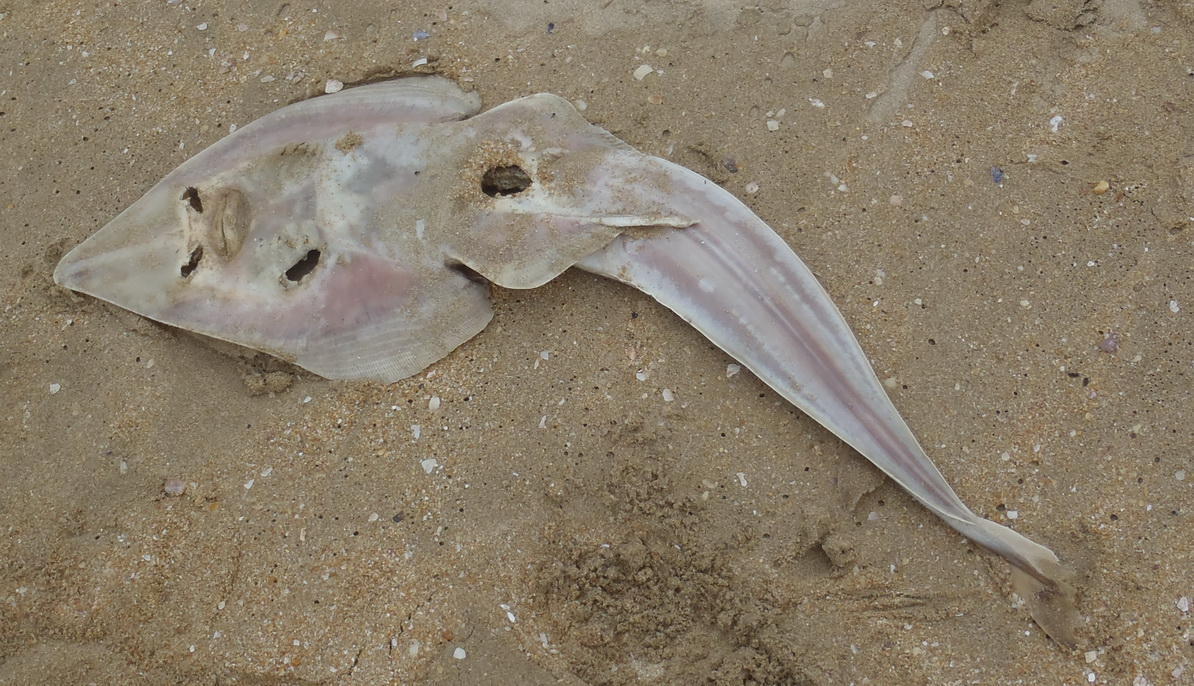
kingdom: Animalia
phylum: Chordata
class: Elasmobranchii
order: Rhinopristiformes
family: Rhinobatidae
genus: Acroteriobatus
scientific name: Acroteriobatus annulatus
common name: Lesser guitarfish
